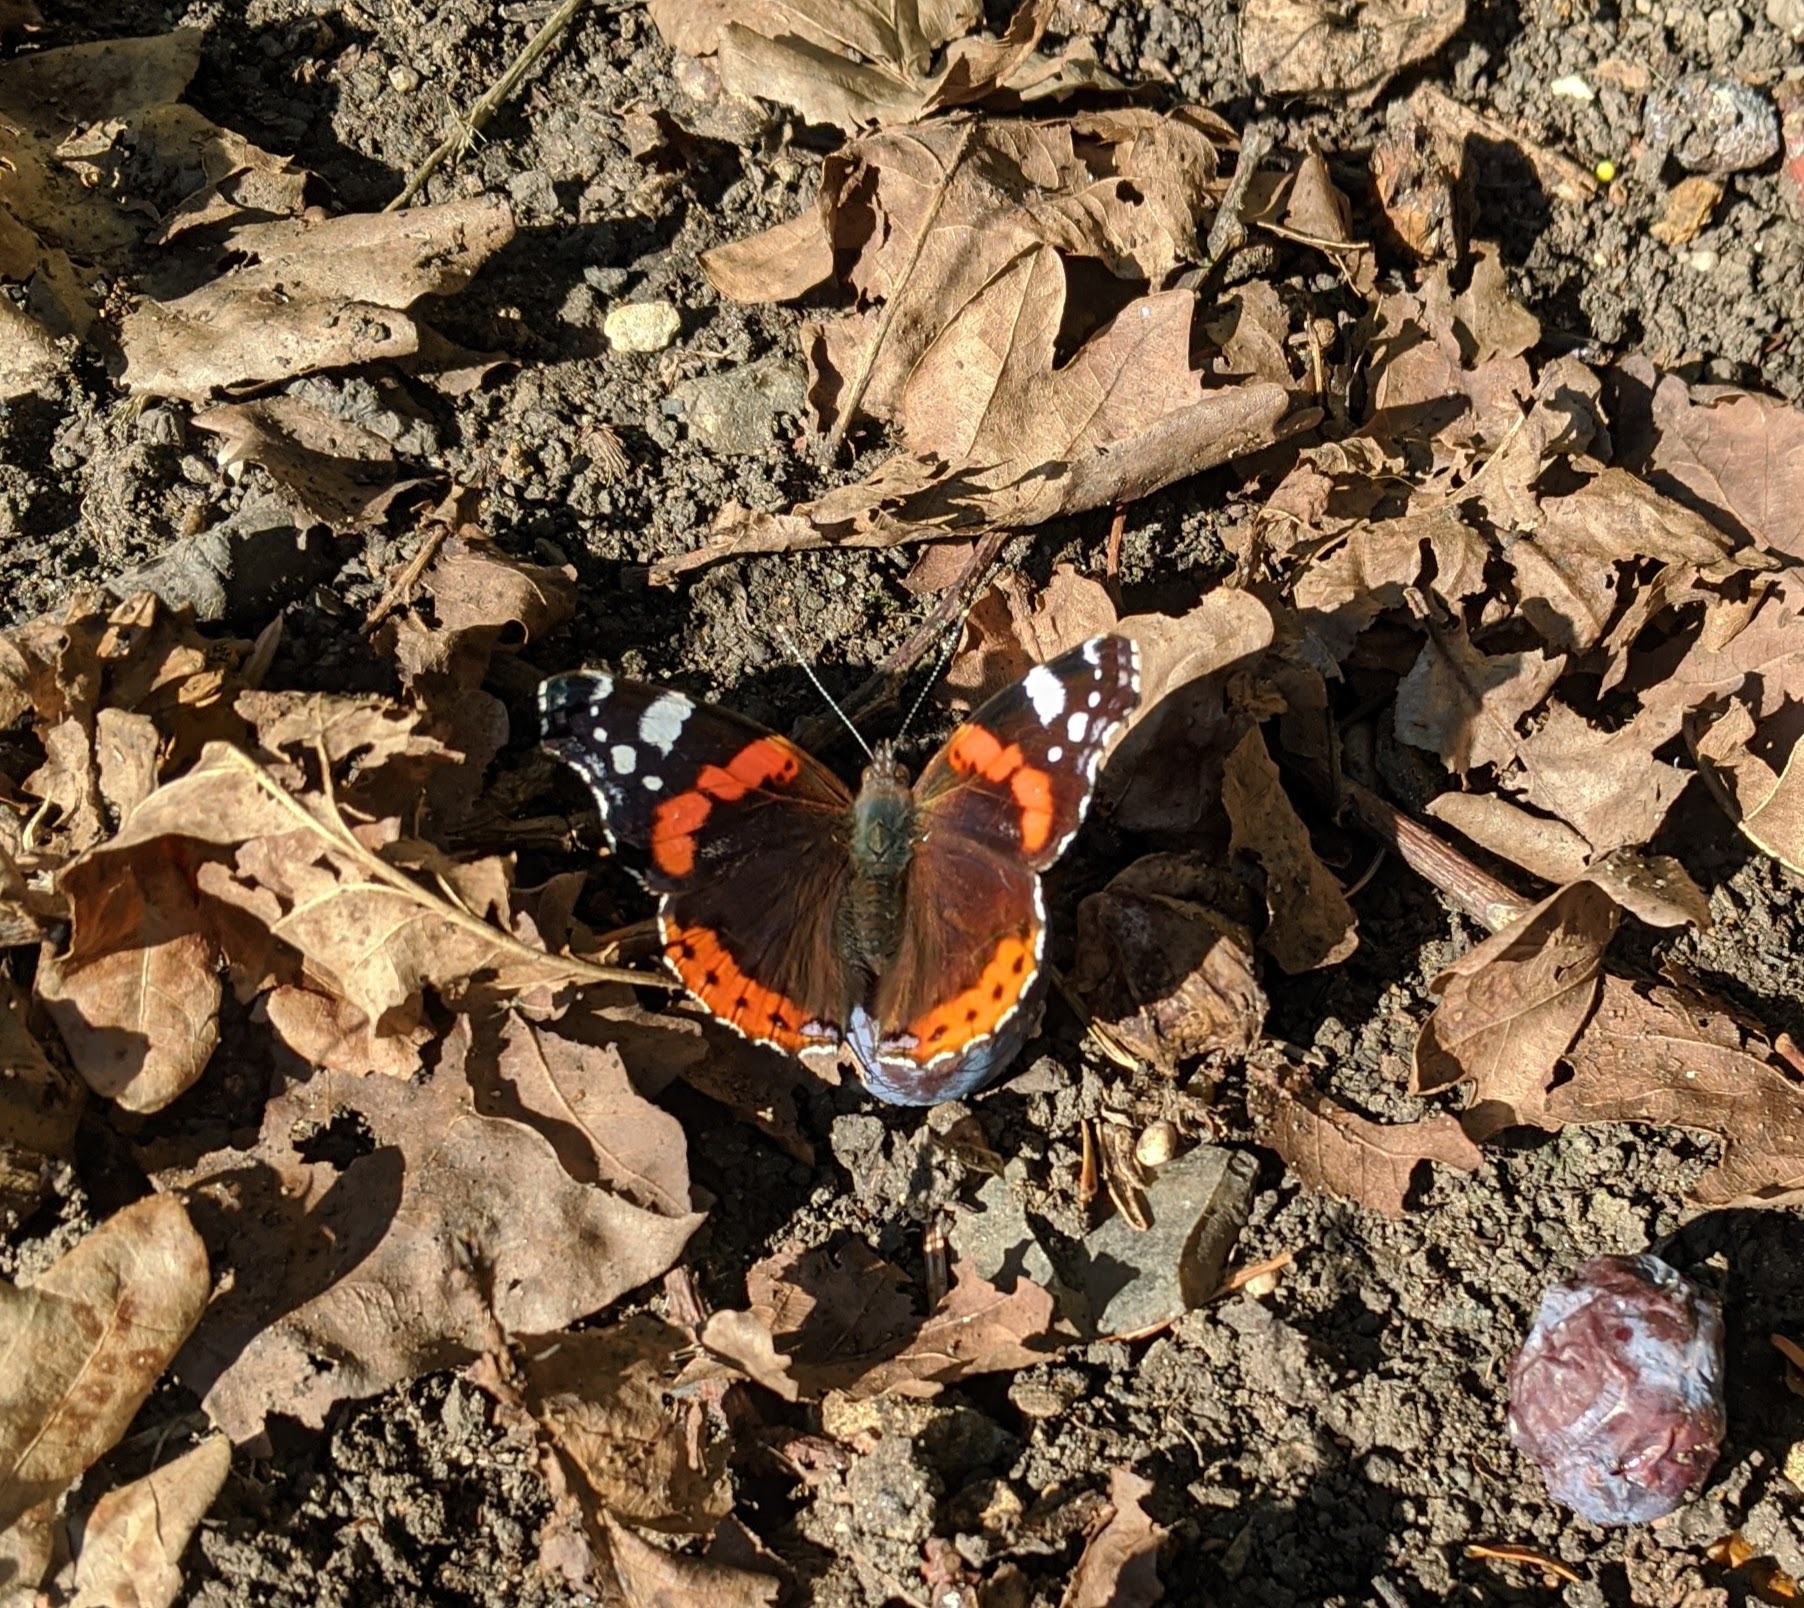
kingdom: Animalia
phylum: Arthropoda
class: Insecta
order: Lepidoptera
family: Nymphalidae
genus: Vanessa
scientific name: Vanessa atalanta
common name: Red admiral
